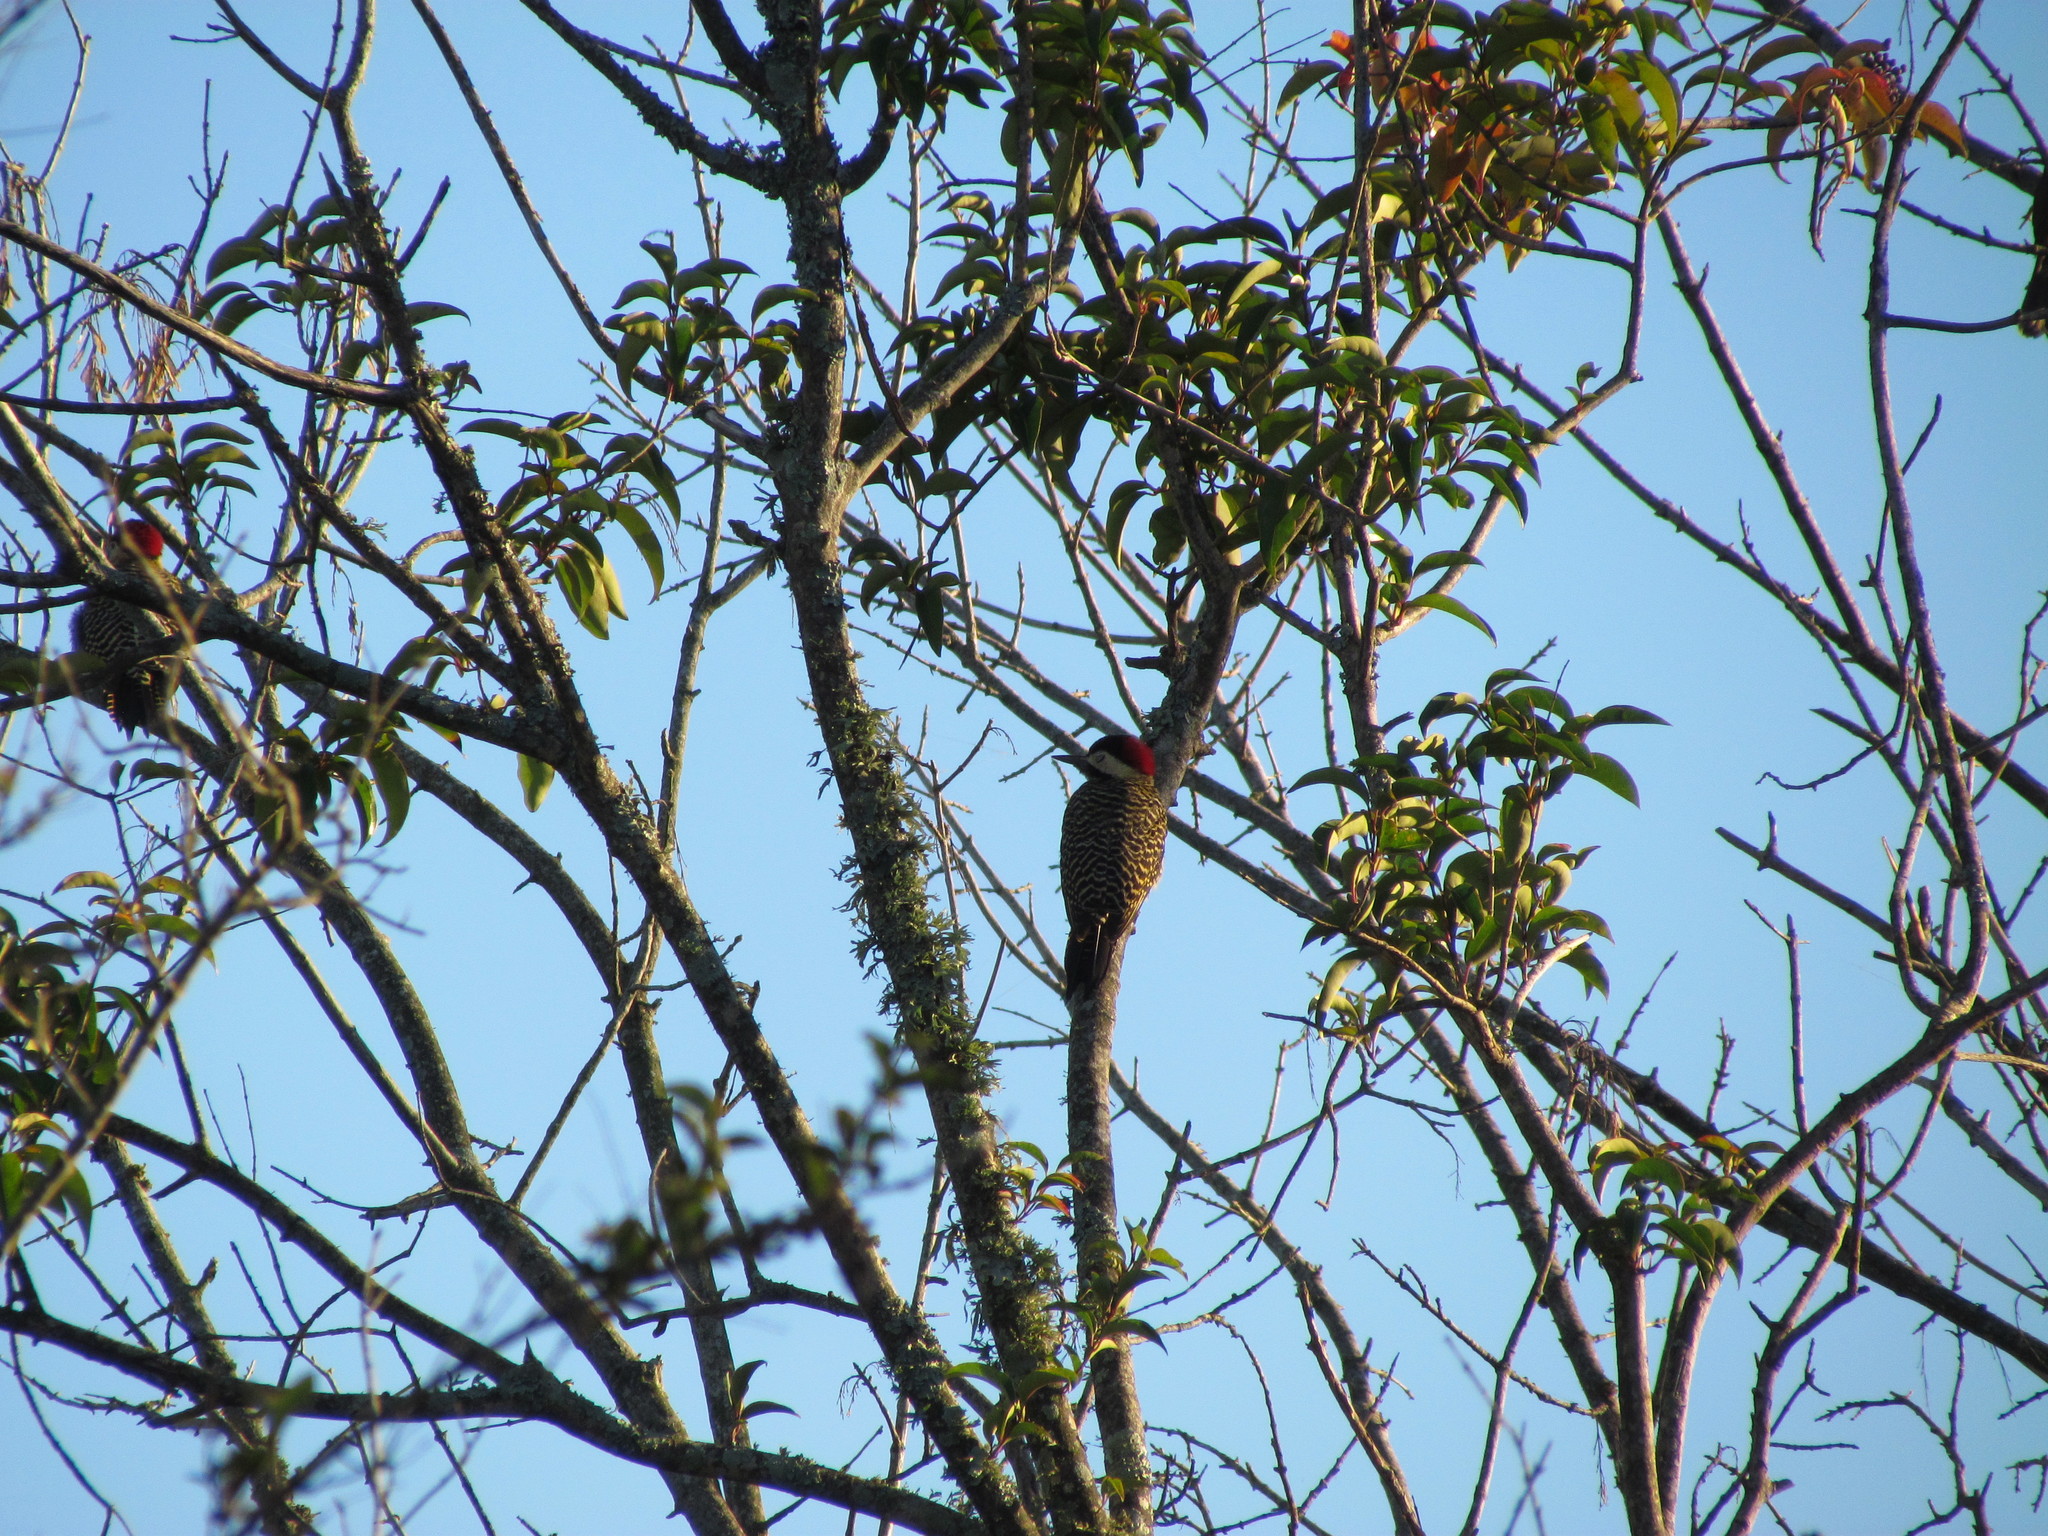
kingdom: Animalia
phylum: Chordata
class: Aves
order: Piciformes
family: Picidae
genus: Colaptes
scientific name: Colaptes melanochloros
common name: Green-barred woodpecker
